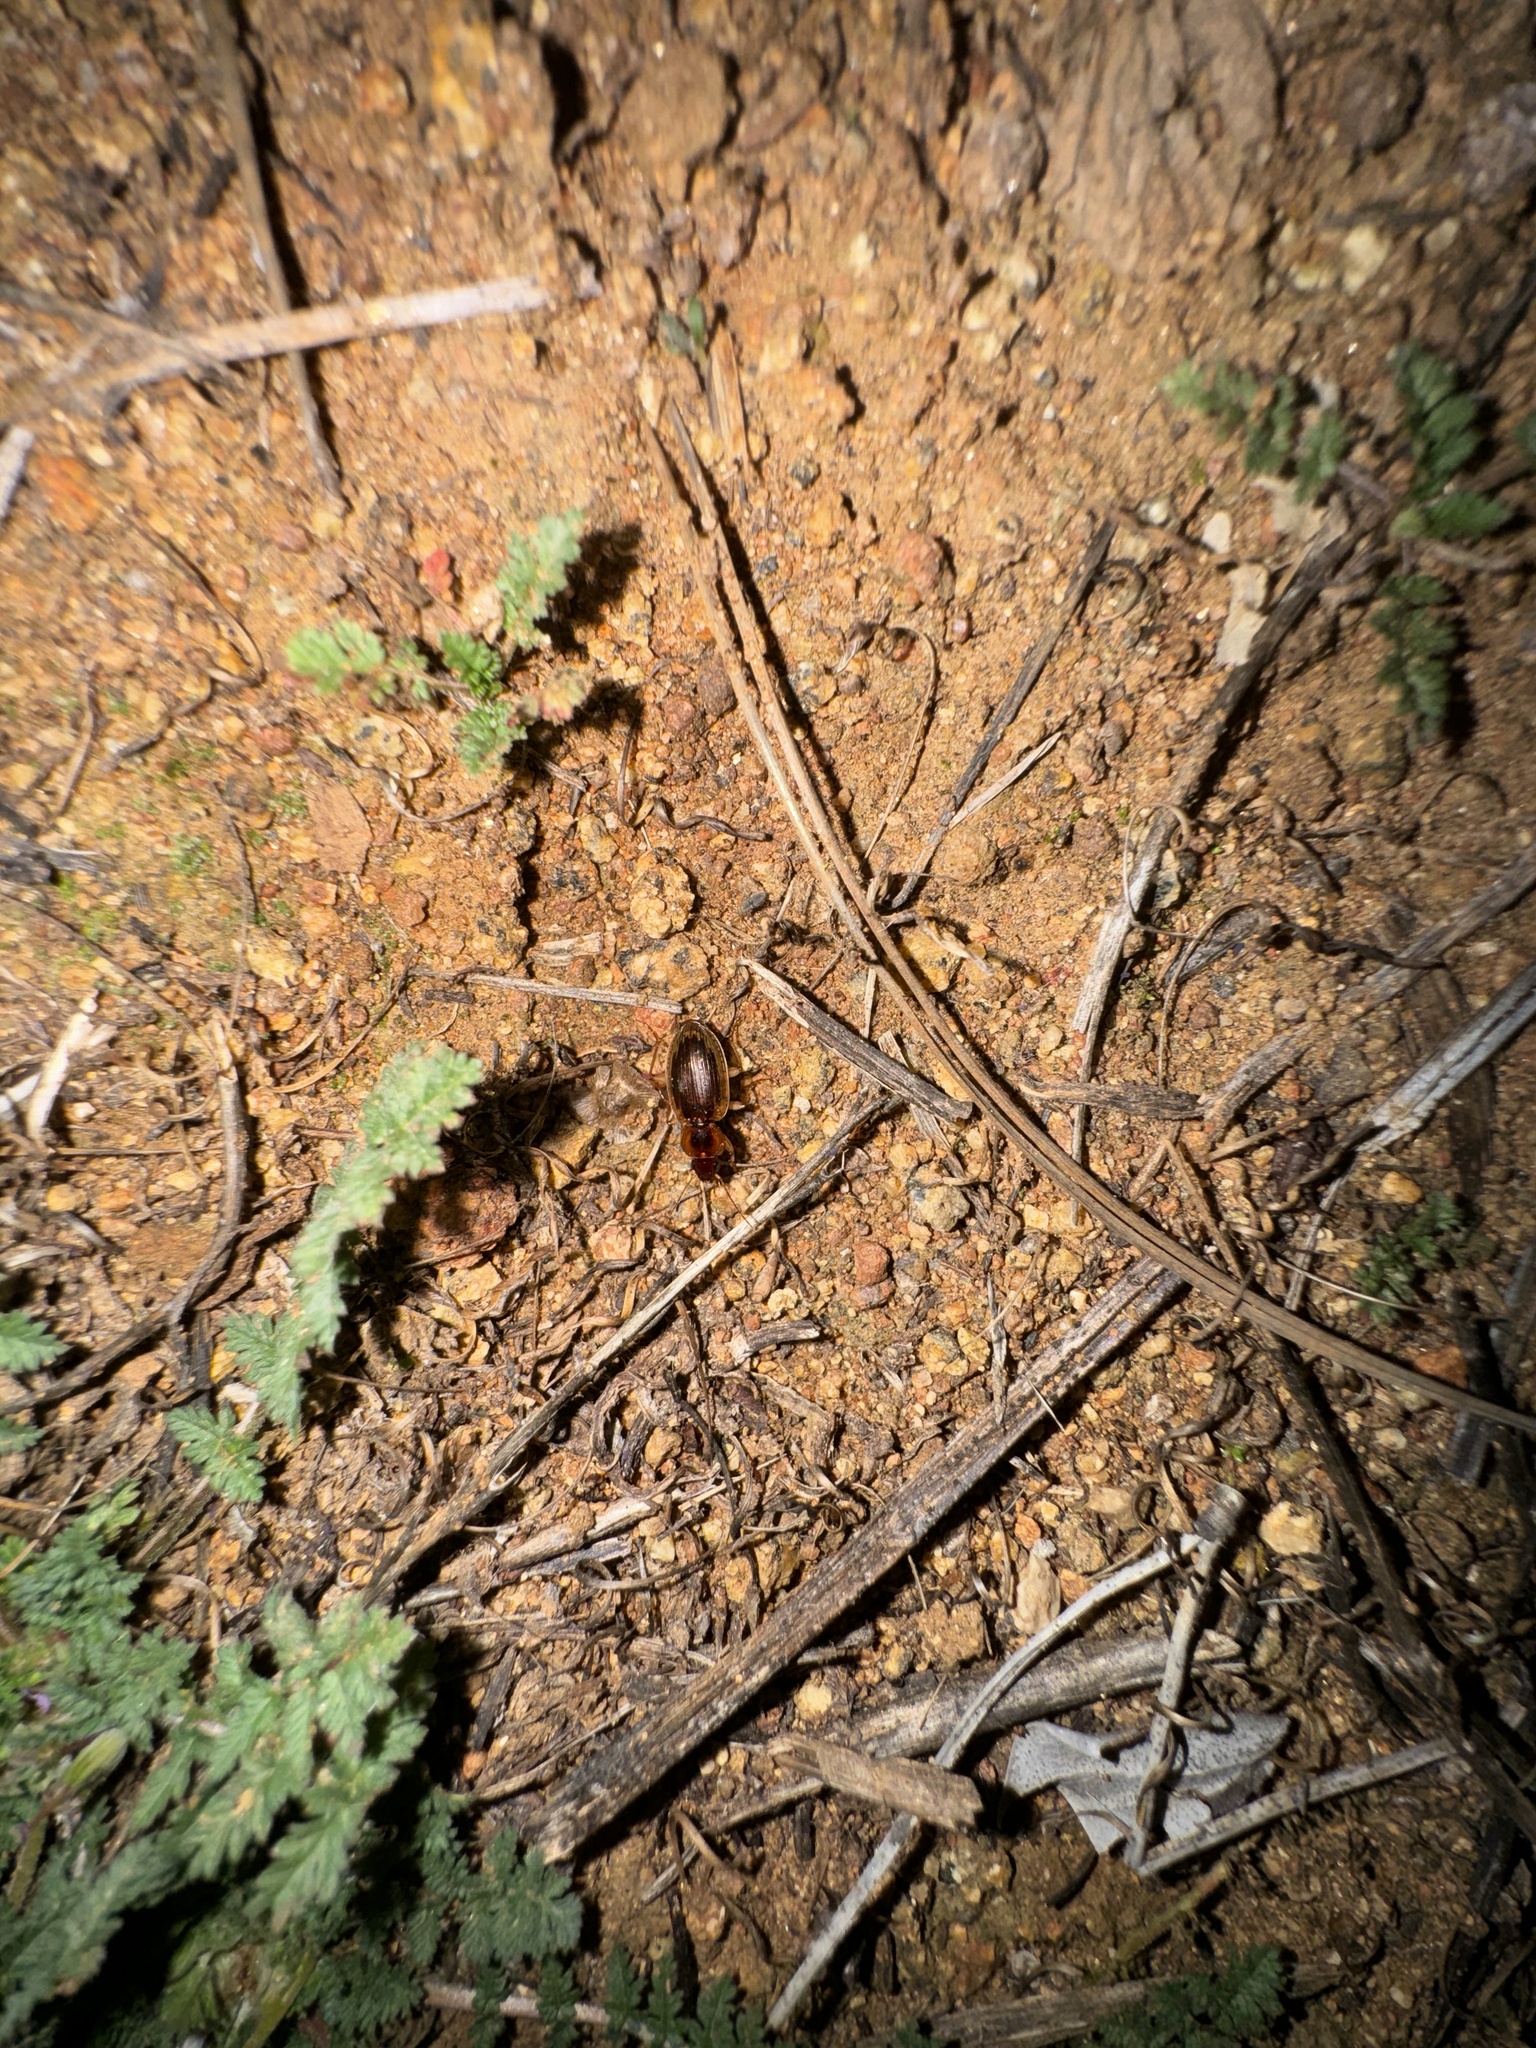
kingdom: Animalia
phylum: Arthropoda
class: Insecta
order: Coleoptera
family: Carabidae
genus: Tanystoma
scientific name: Tanystoma maculicolle
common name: Tule beetle
